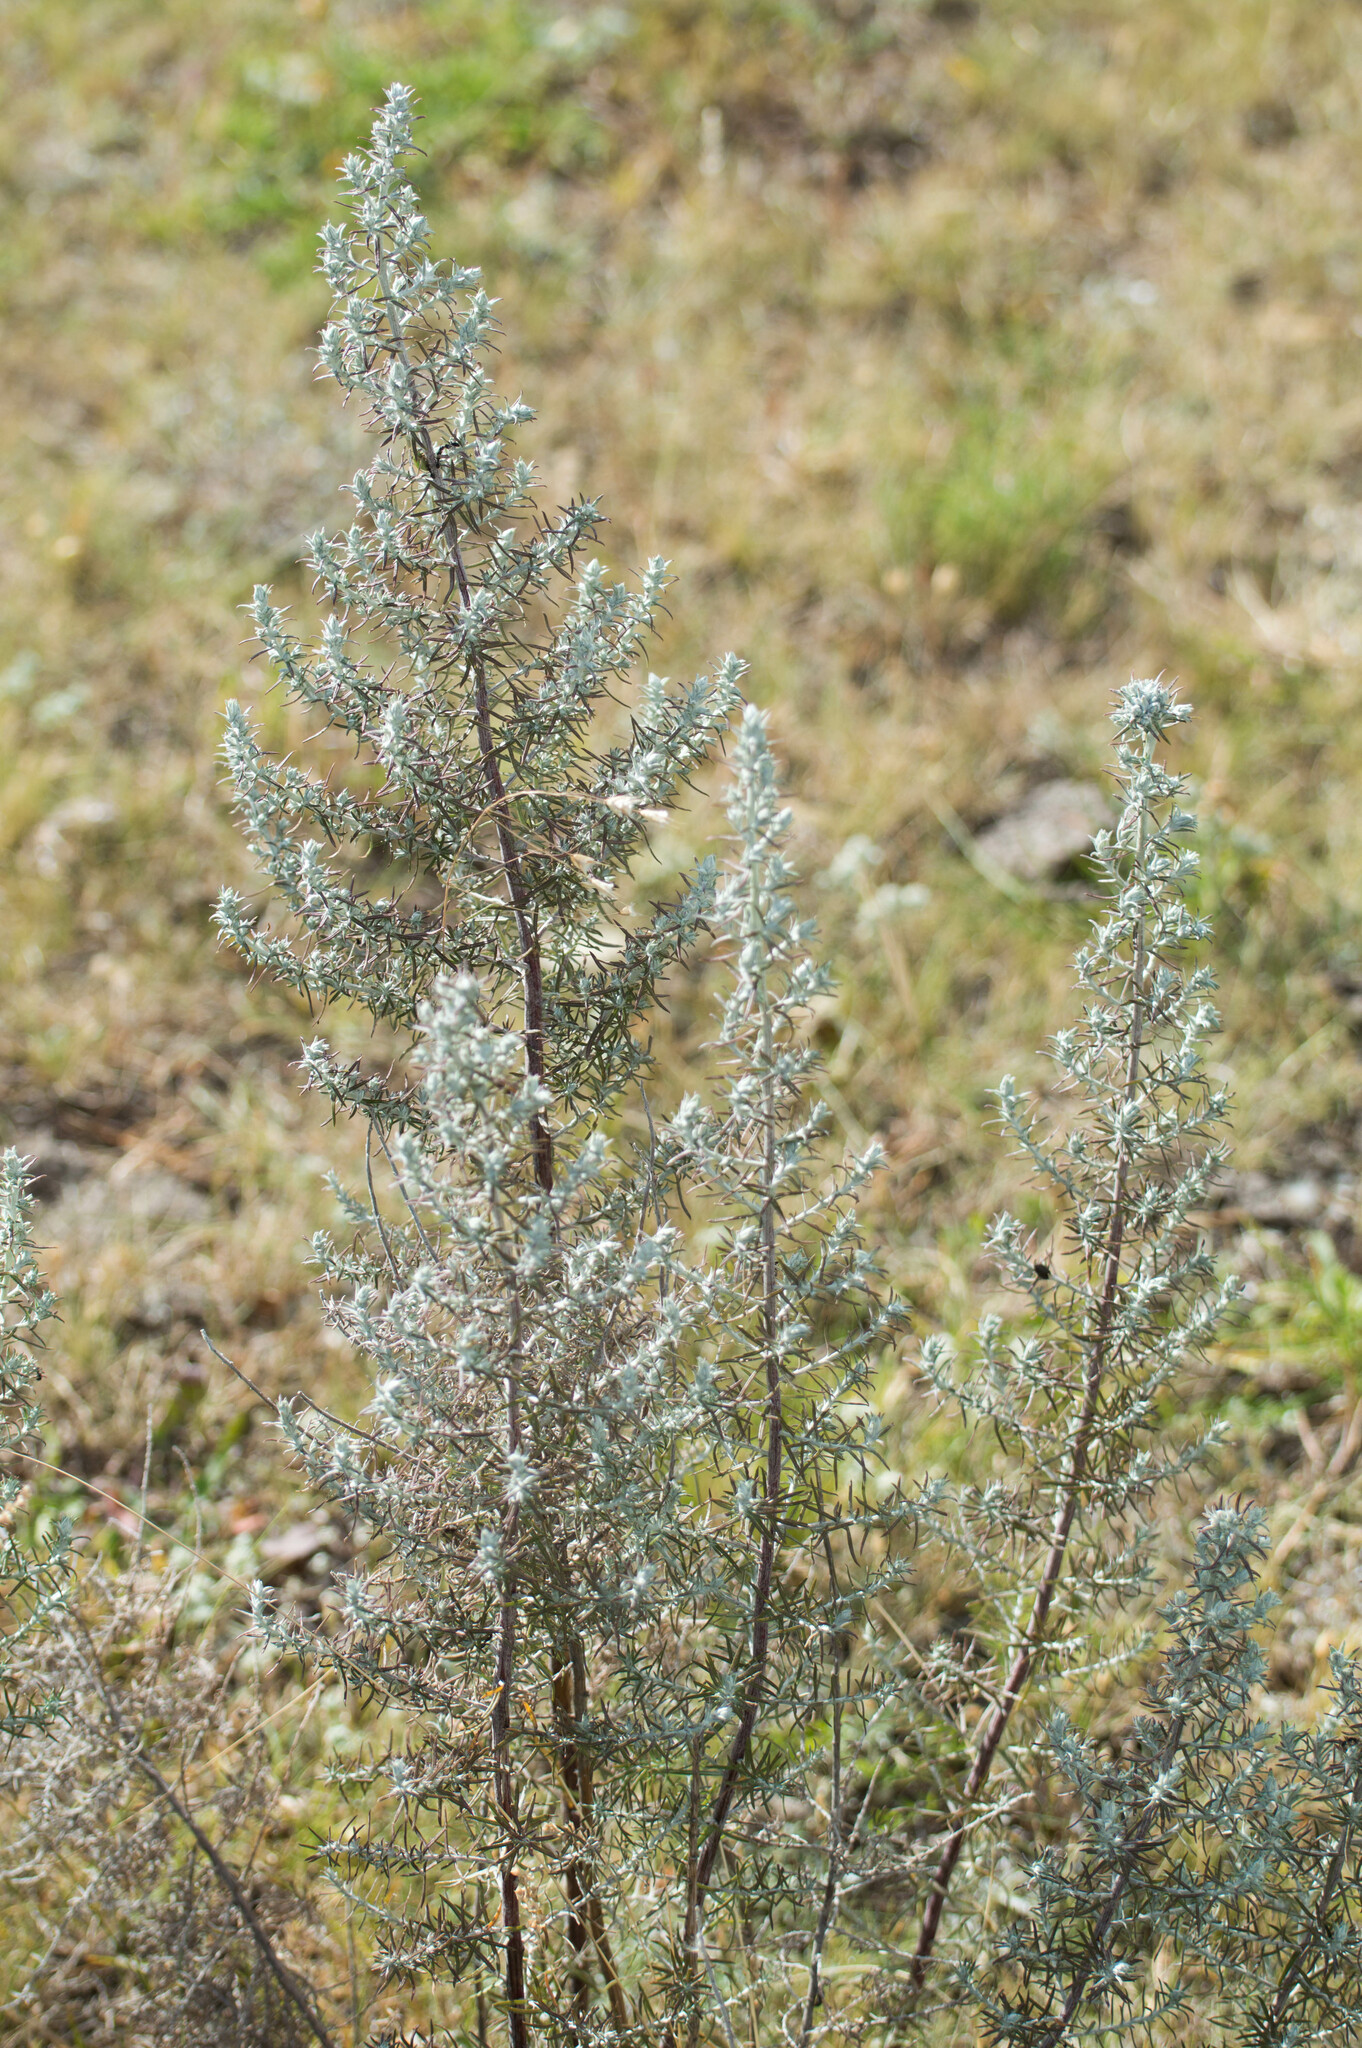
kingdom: Plantae
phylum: Tracheophyta
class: Magnoliopsida
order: Asterales
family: Asteraceae
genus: Baccharis
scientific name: Baccharis artemisioides
